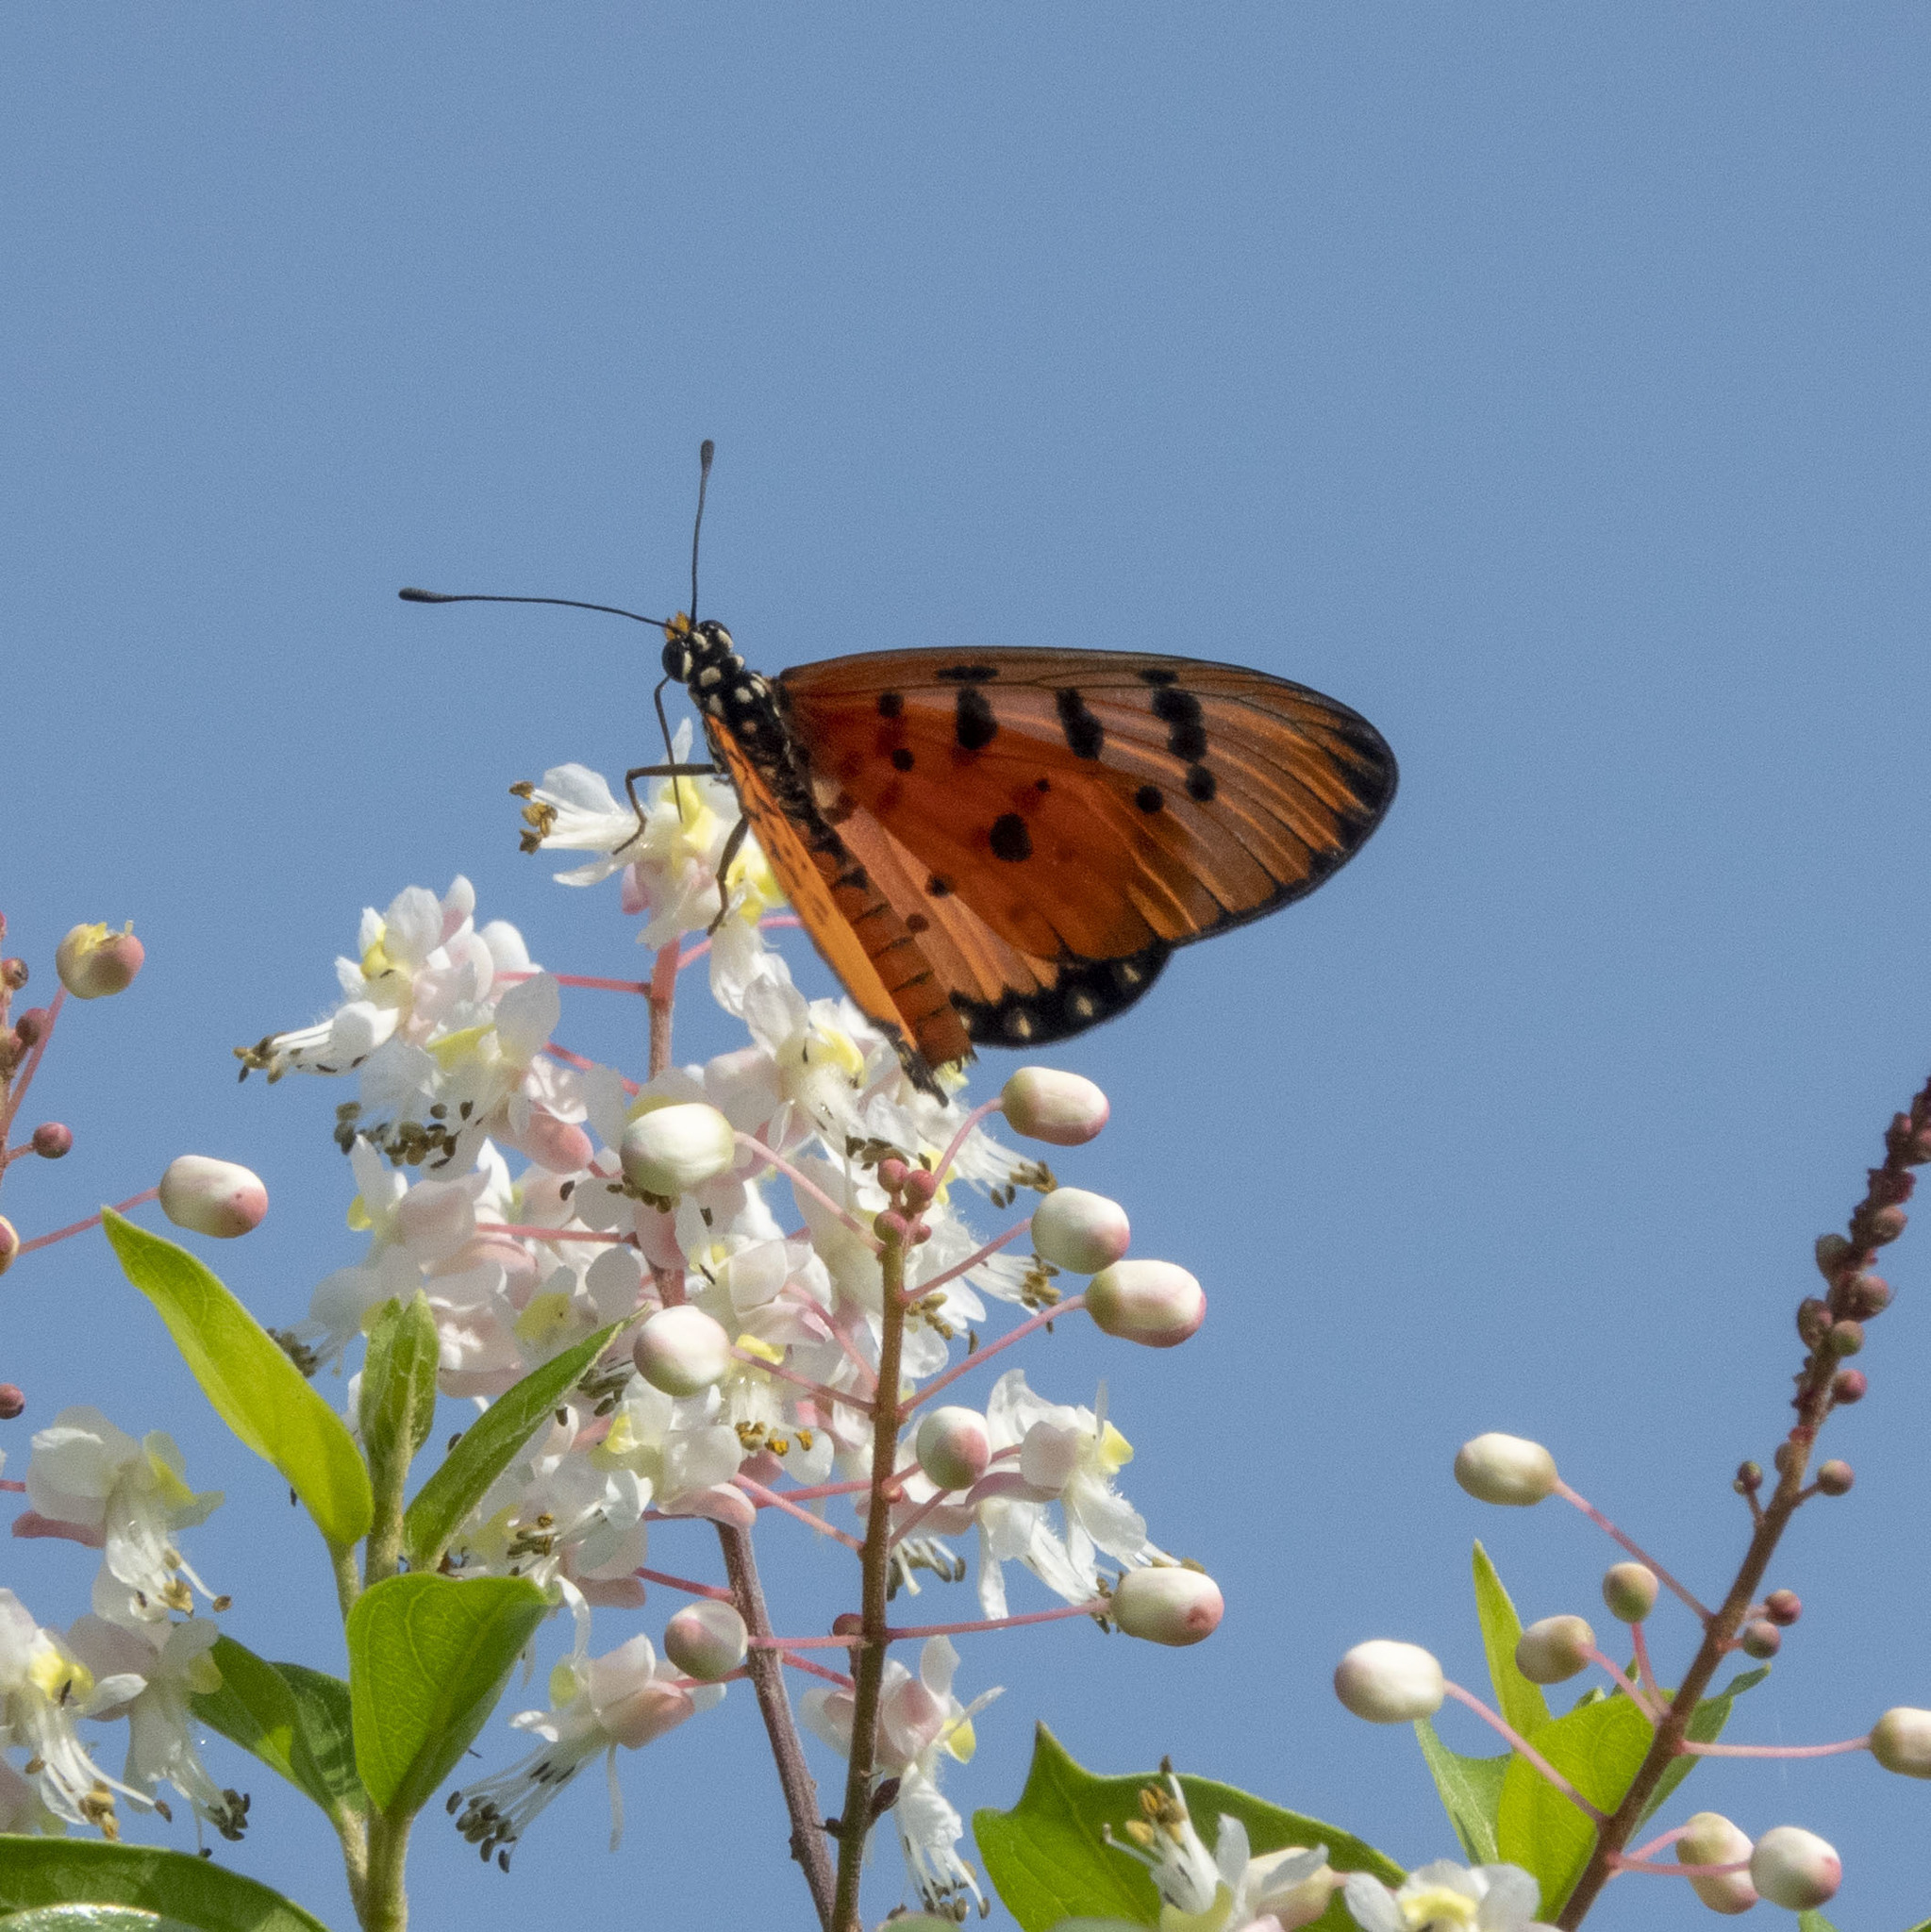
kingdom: Animalia
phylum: Arthropoda
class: Insecta
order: Lepidoptera
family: Nymphalidae
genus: Acraea
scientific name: Acraea terpsicore
